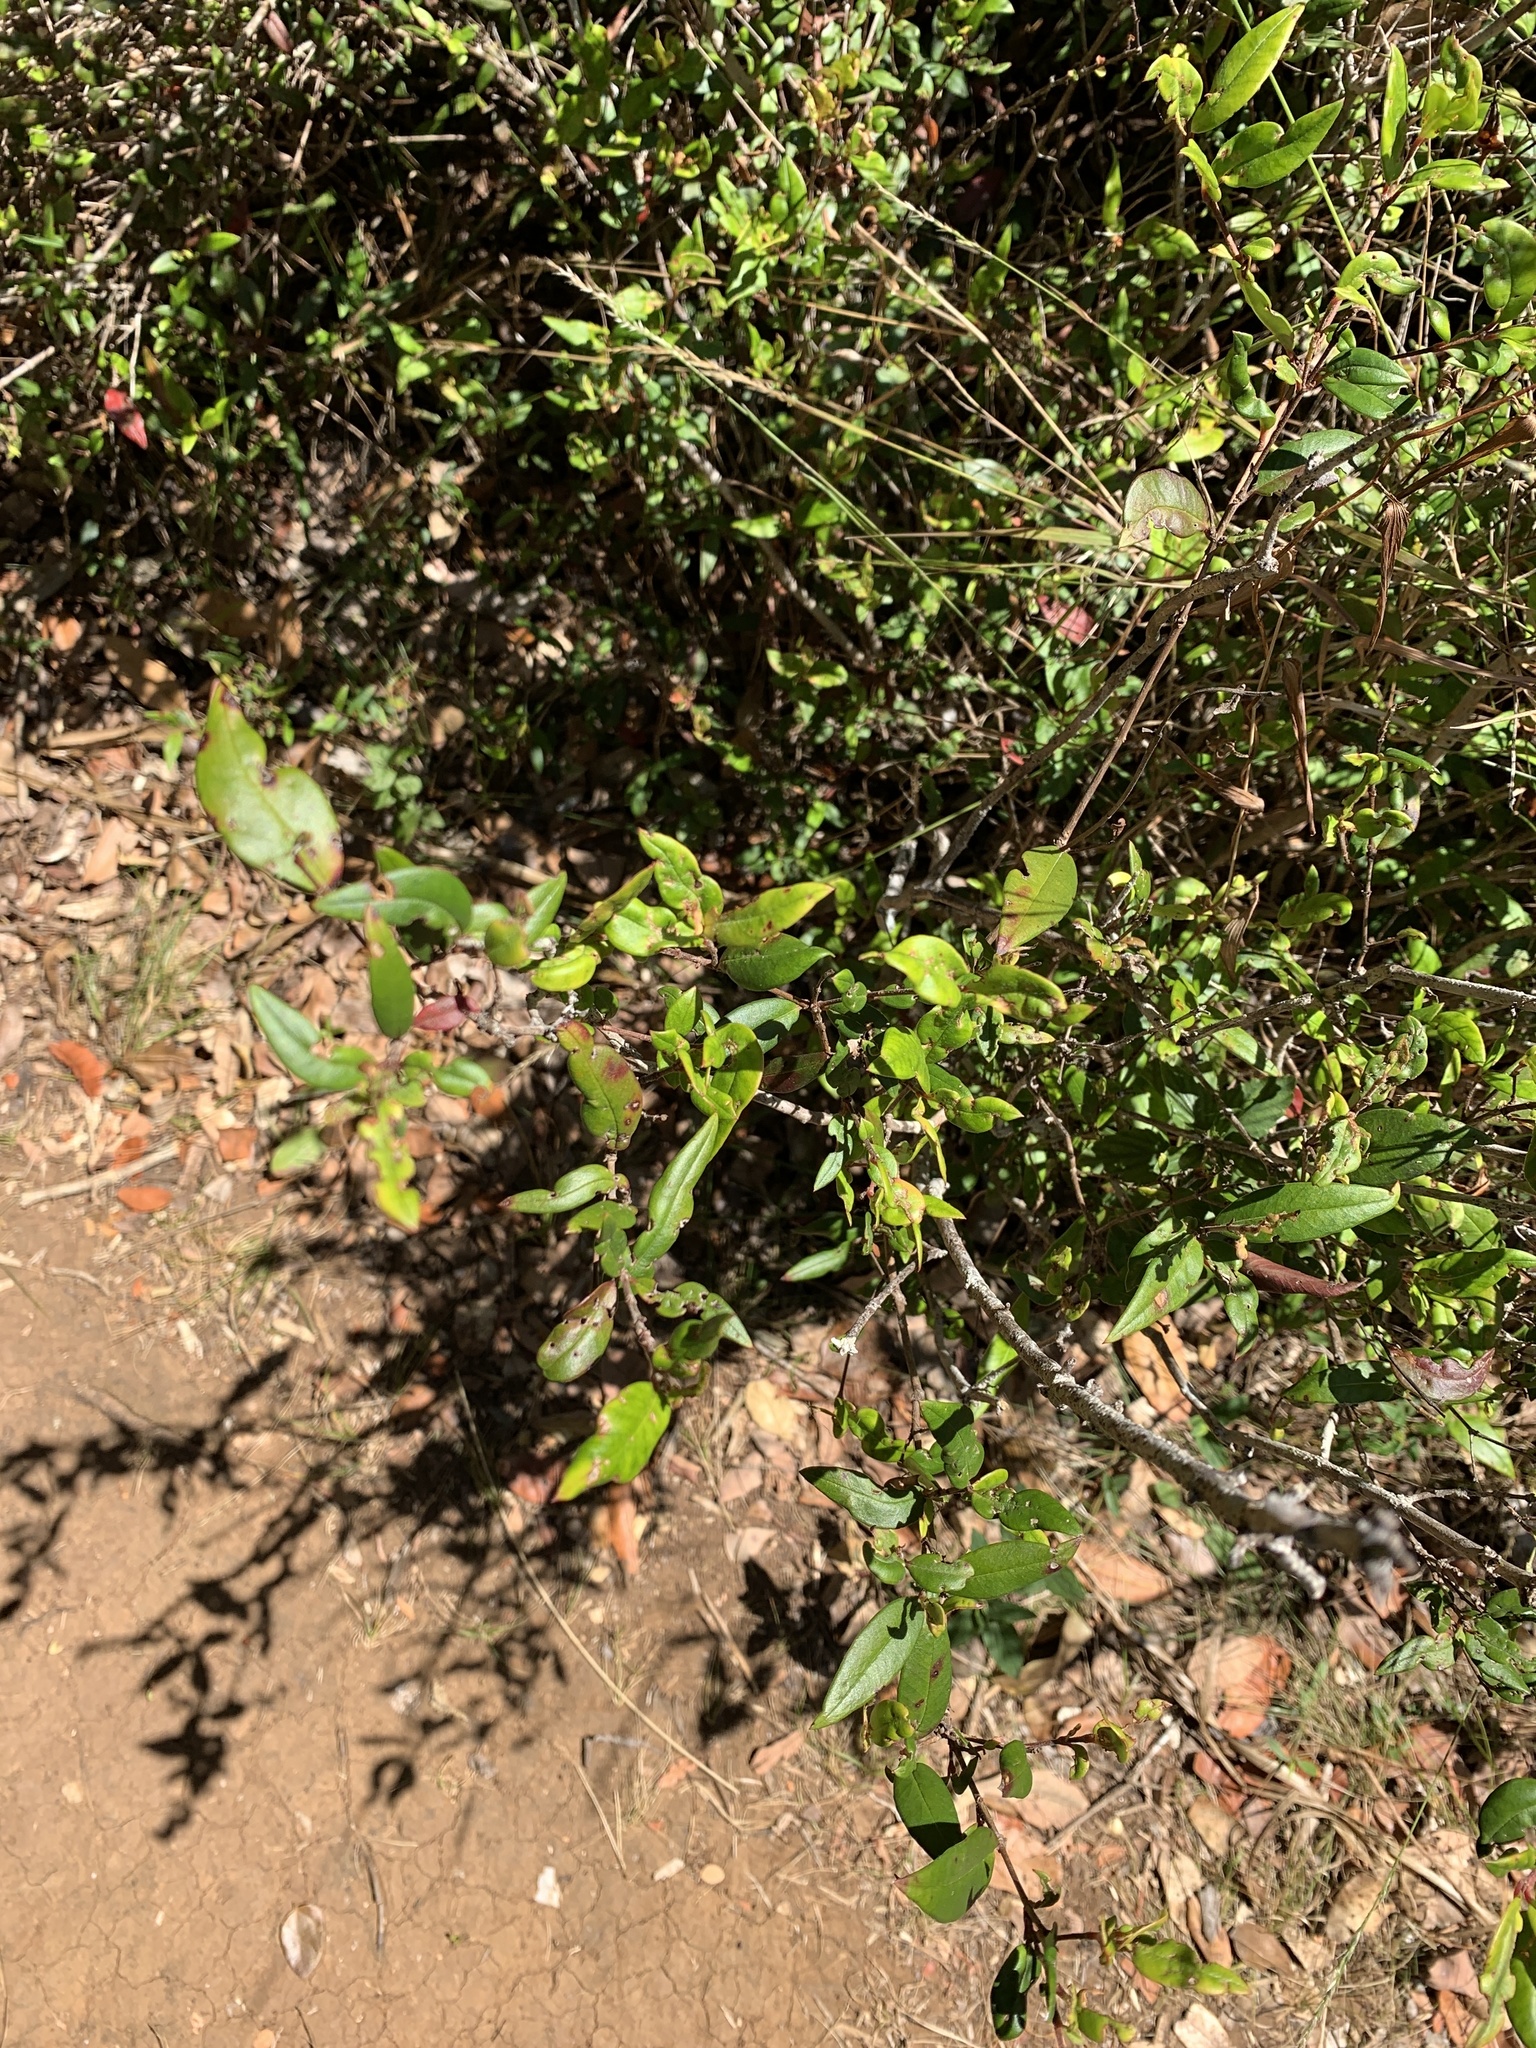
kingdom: Plantae
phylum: Tracheophyta
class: Magnoliopsida
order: Myrtales
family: Myrtaceae
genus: Ugni
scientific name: Ugni molinae
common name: Chilean-guava
